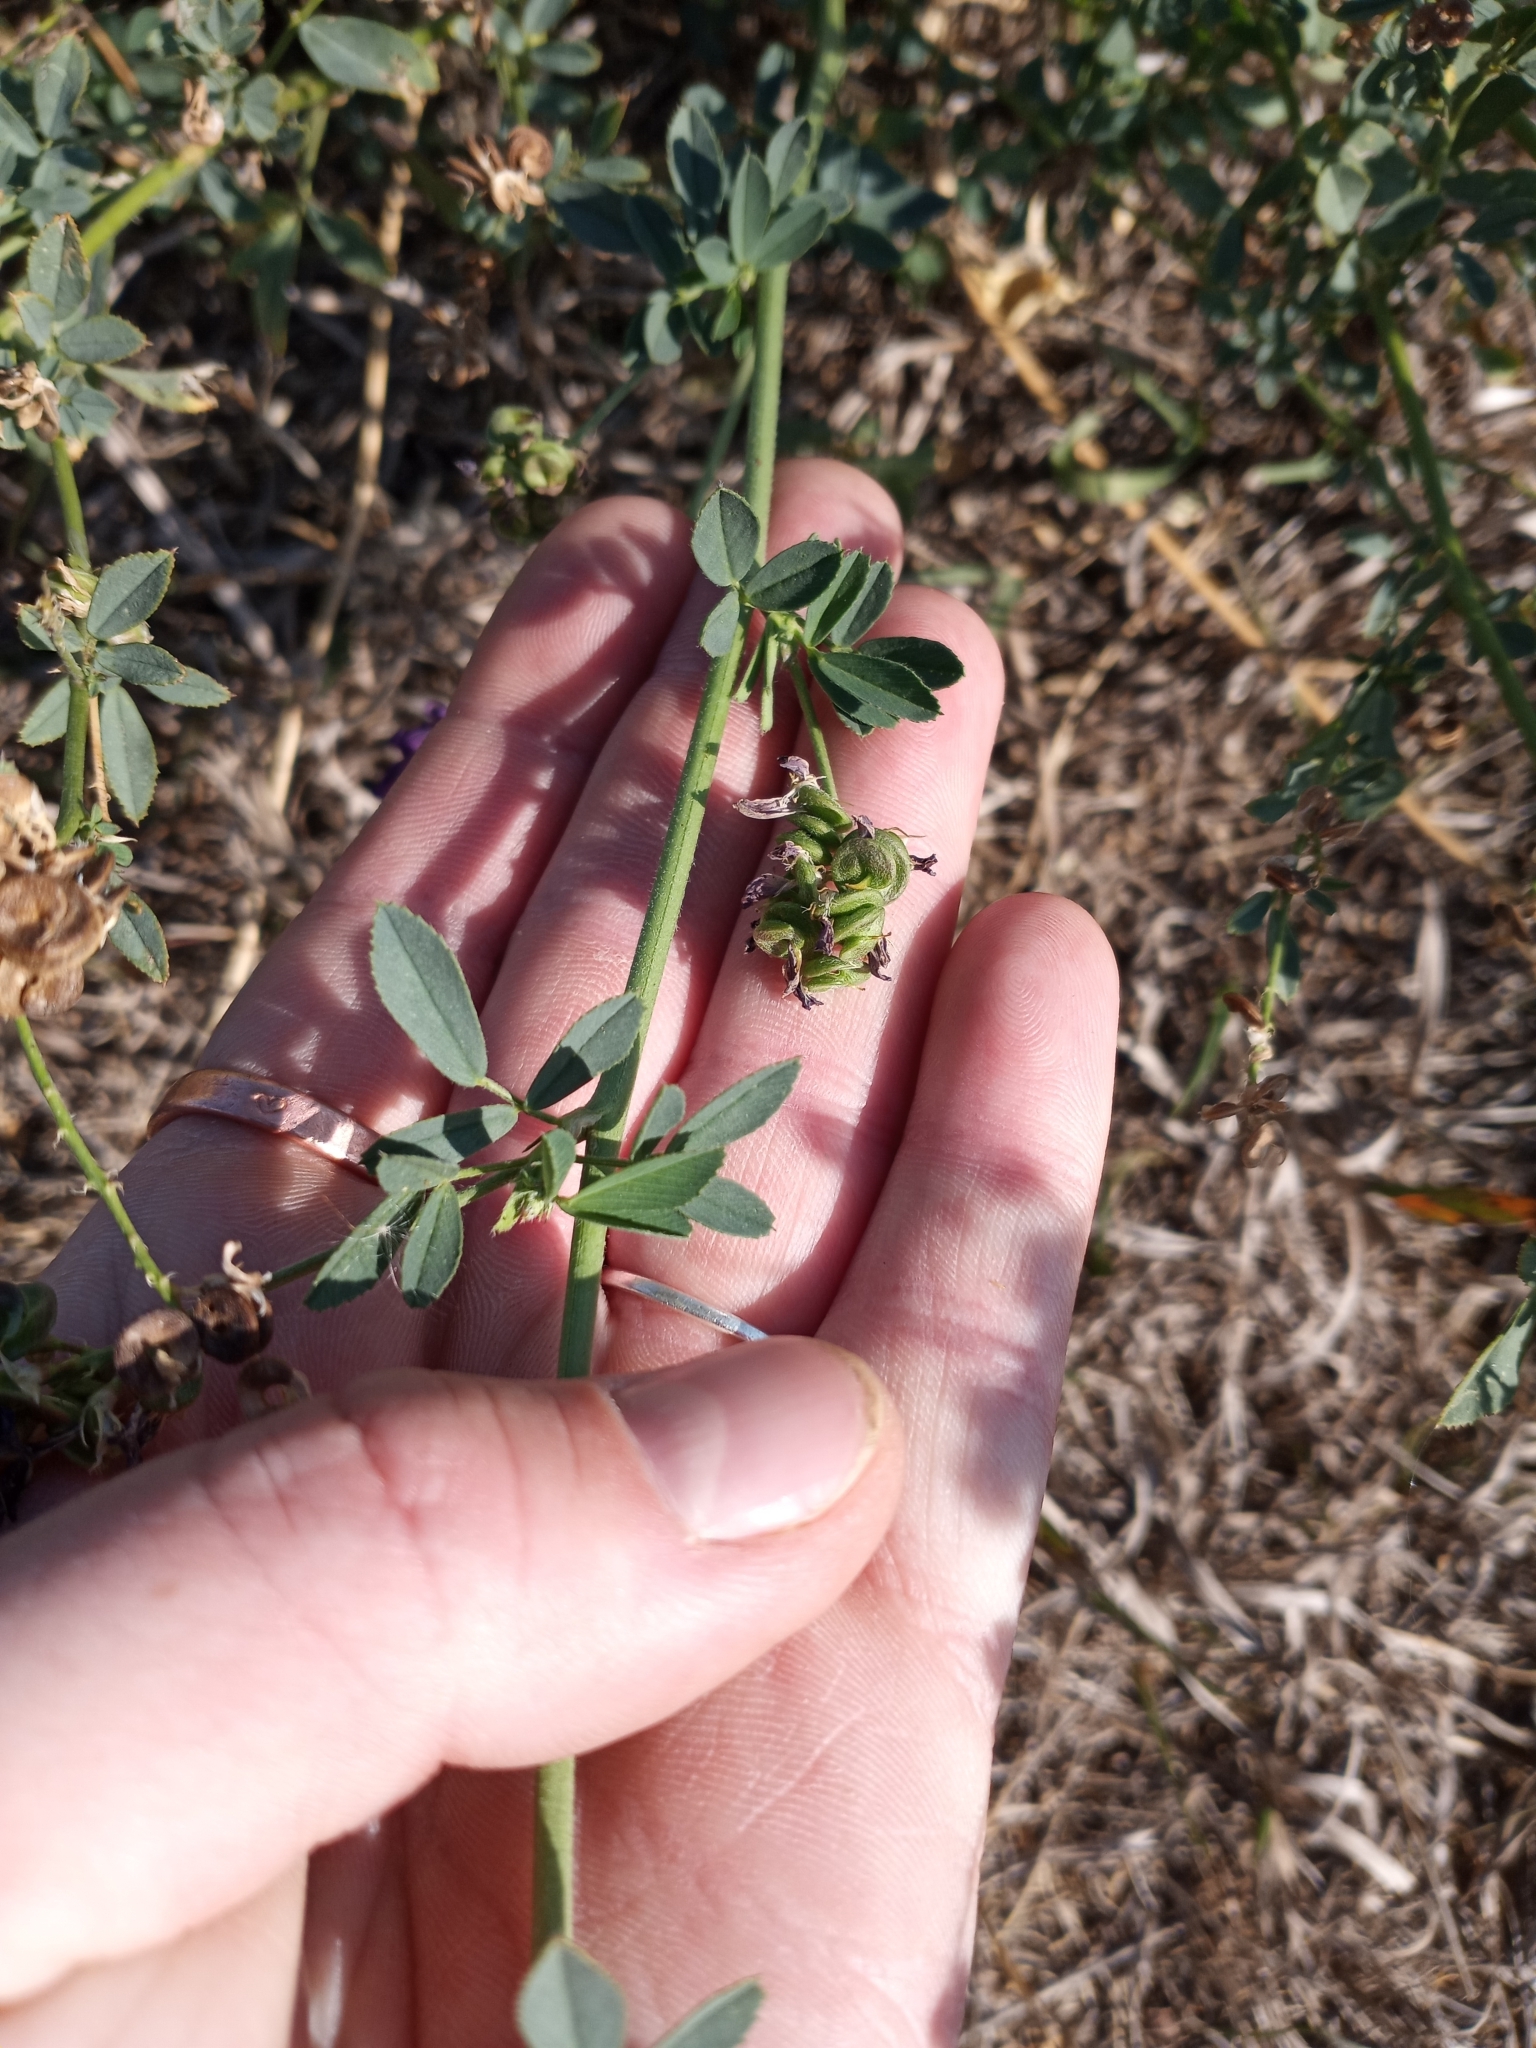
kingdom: Plantae
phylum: Tracheophyta
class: Magnoliopsida
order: Fabales
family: Fabaceae
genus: Medicago
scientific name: Medicago sativa
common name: Alfalfa
